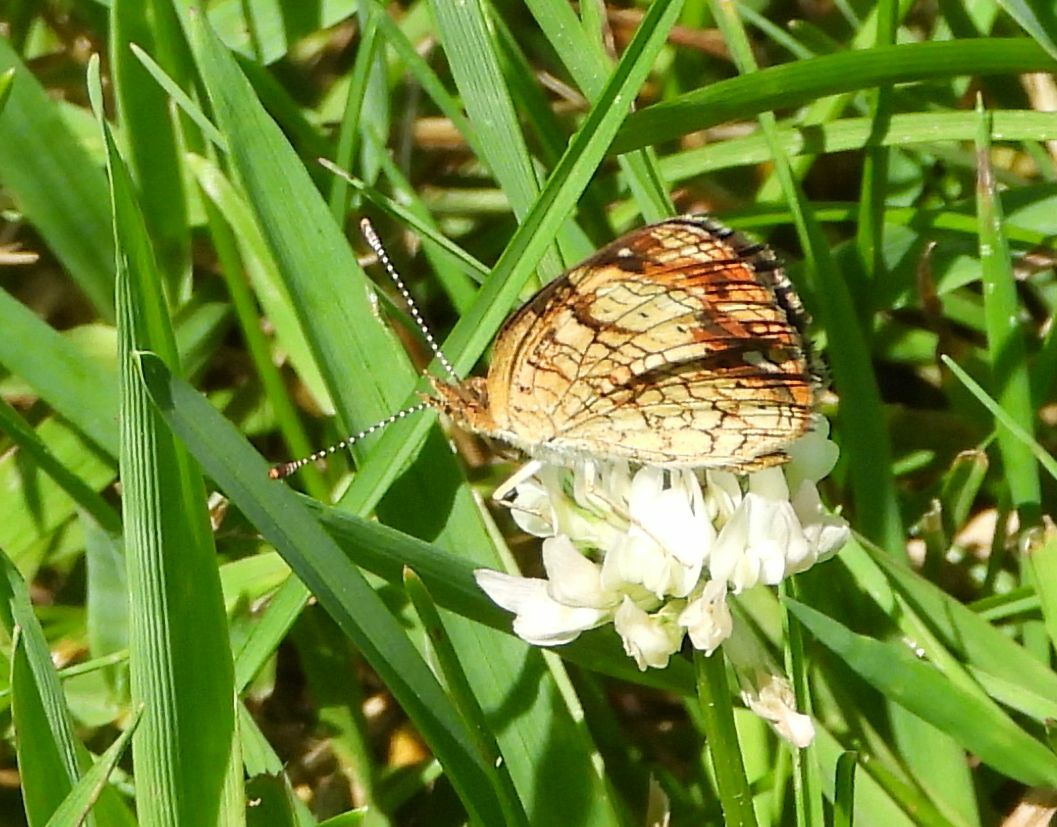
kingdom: Animalia
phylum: Arthropoda
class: Insecta
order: Lepidoptera
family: Nymphalidae
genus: Phyciodes
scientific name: Phyciodes tharos
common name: Pearl crescent
